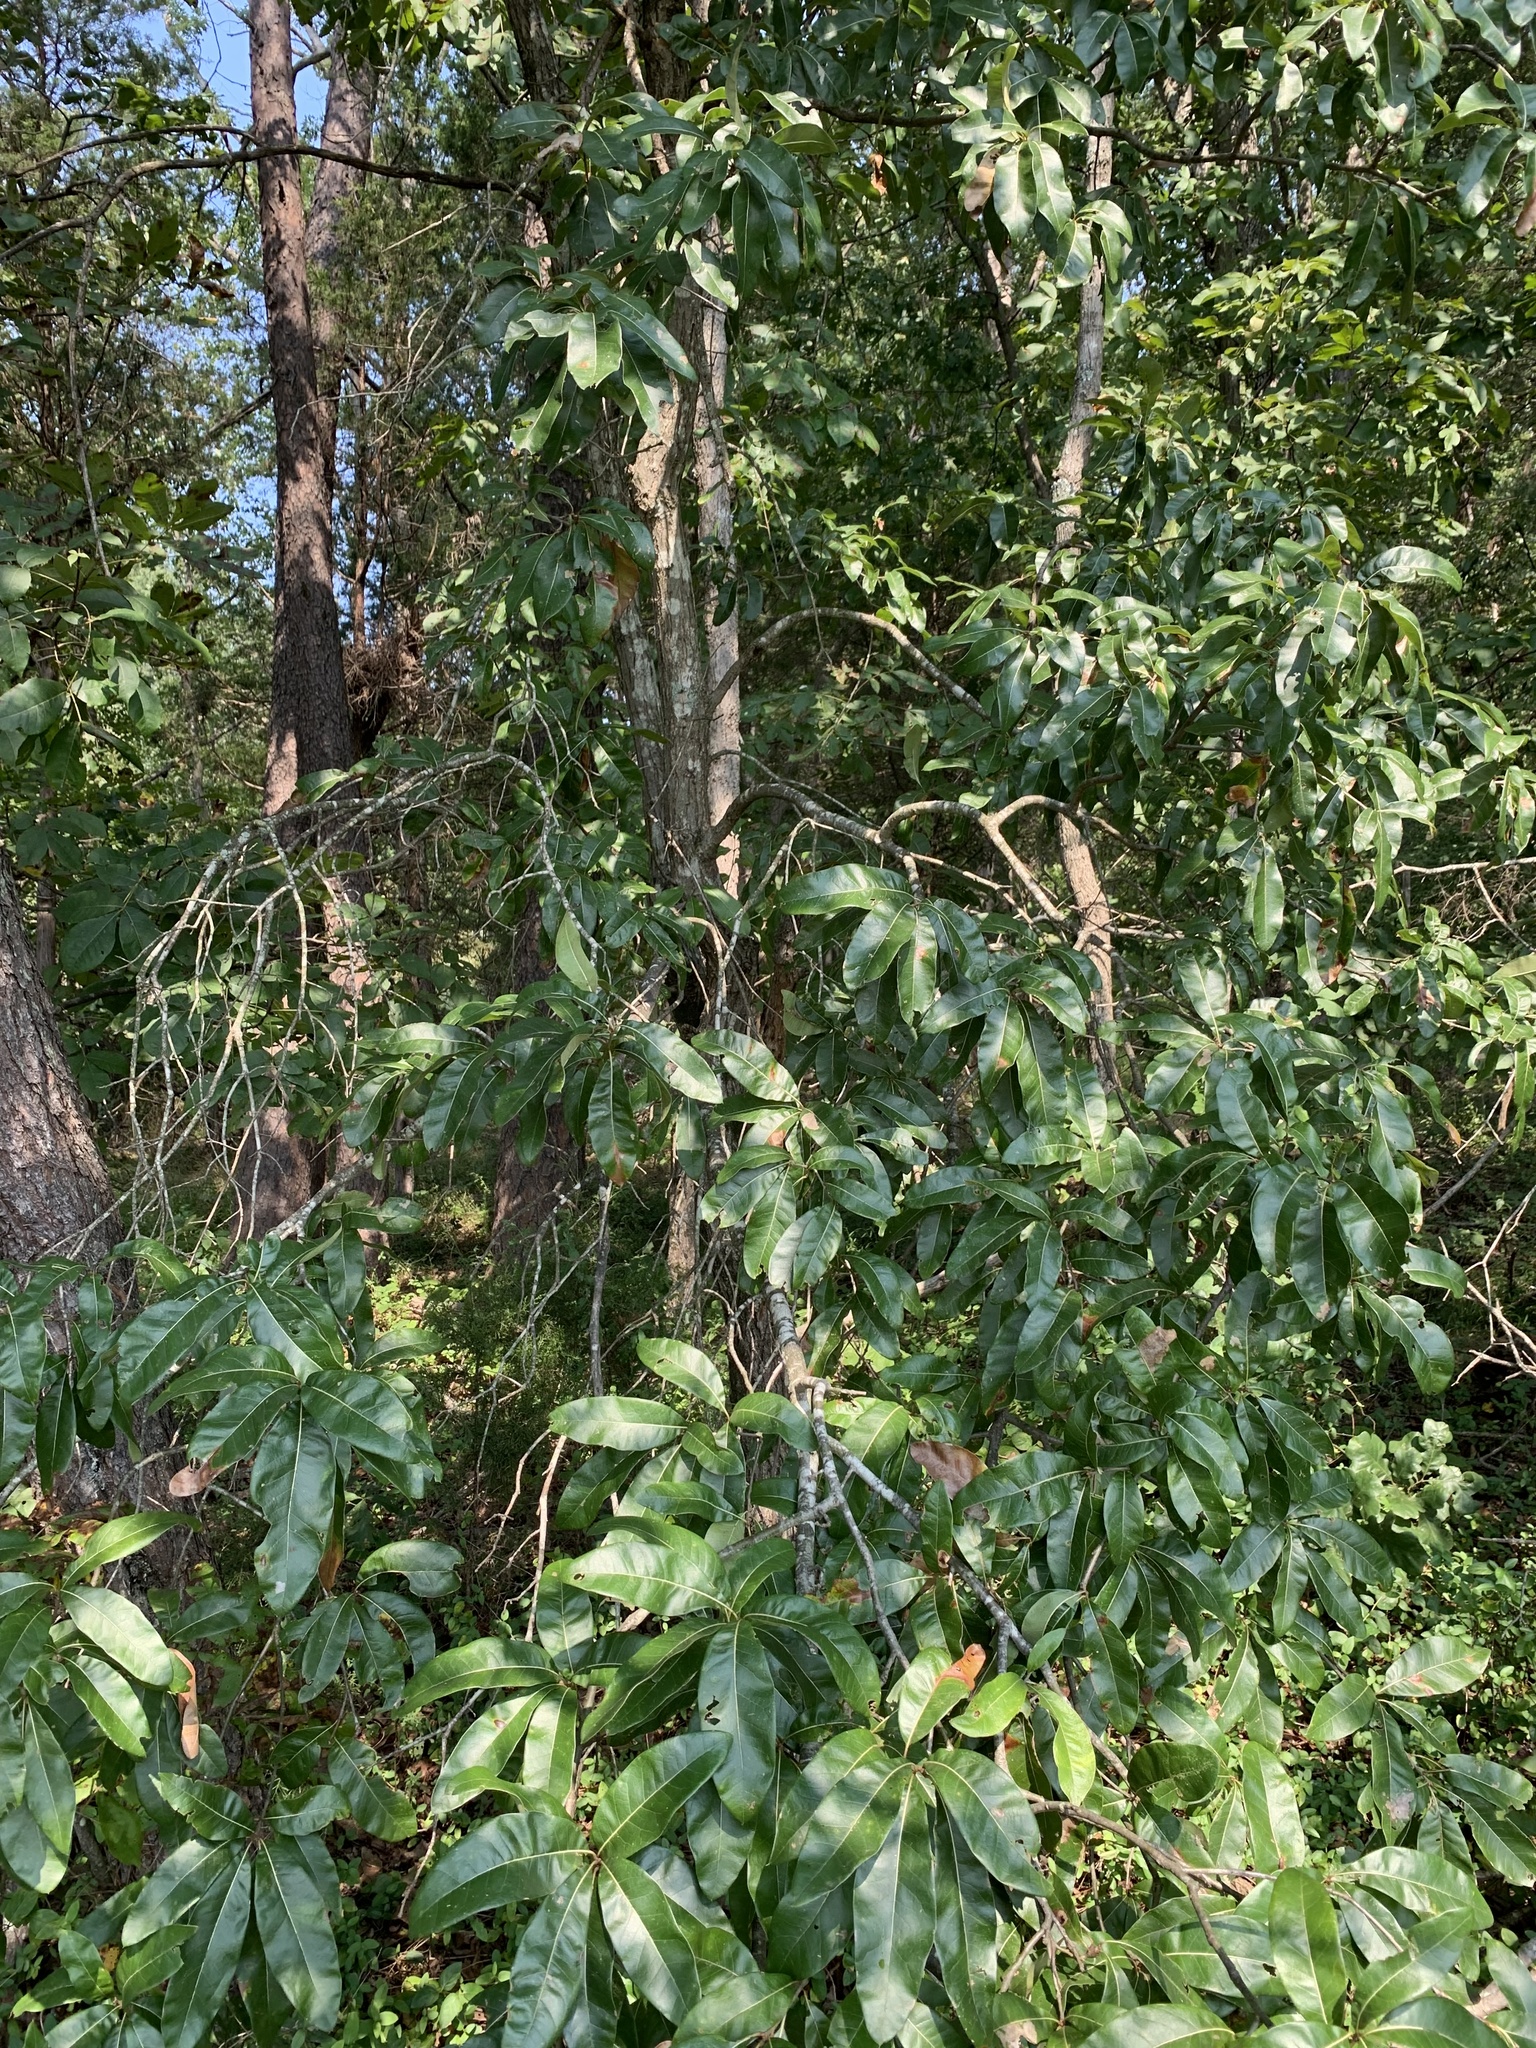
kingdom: Plantae
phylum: Tracheophyta
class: Magnoliopsida
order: Fagales
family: Fagaceae
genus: Quercus
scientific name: Quercus imbricaria
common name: Shingle oak
